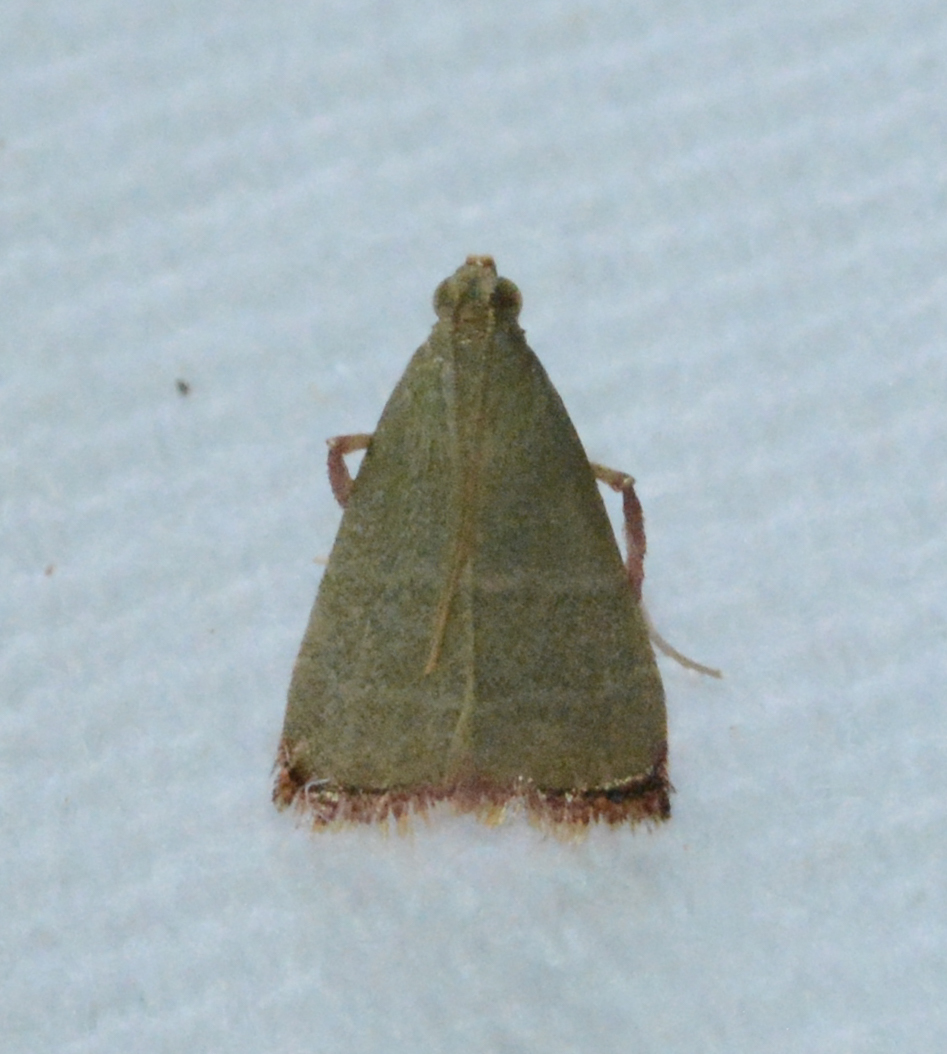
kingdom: Animalia
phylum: Arthropoda
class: Insecta
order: Lepidoptera
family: Pyralidae
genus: Arta
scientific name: Arta olivalis
